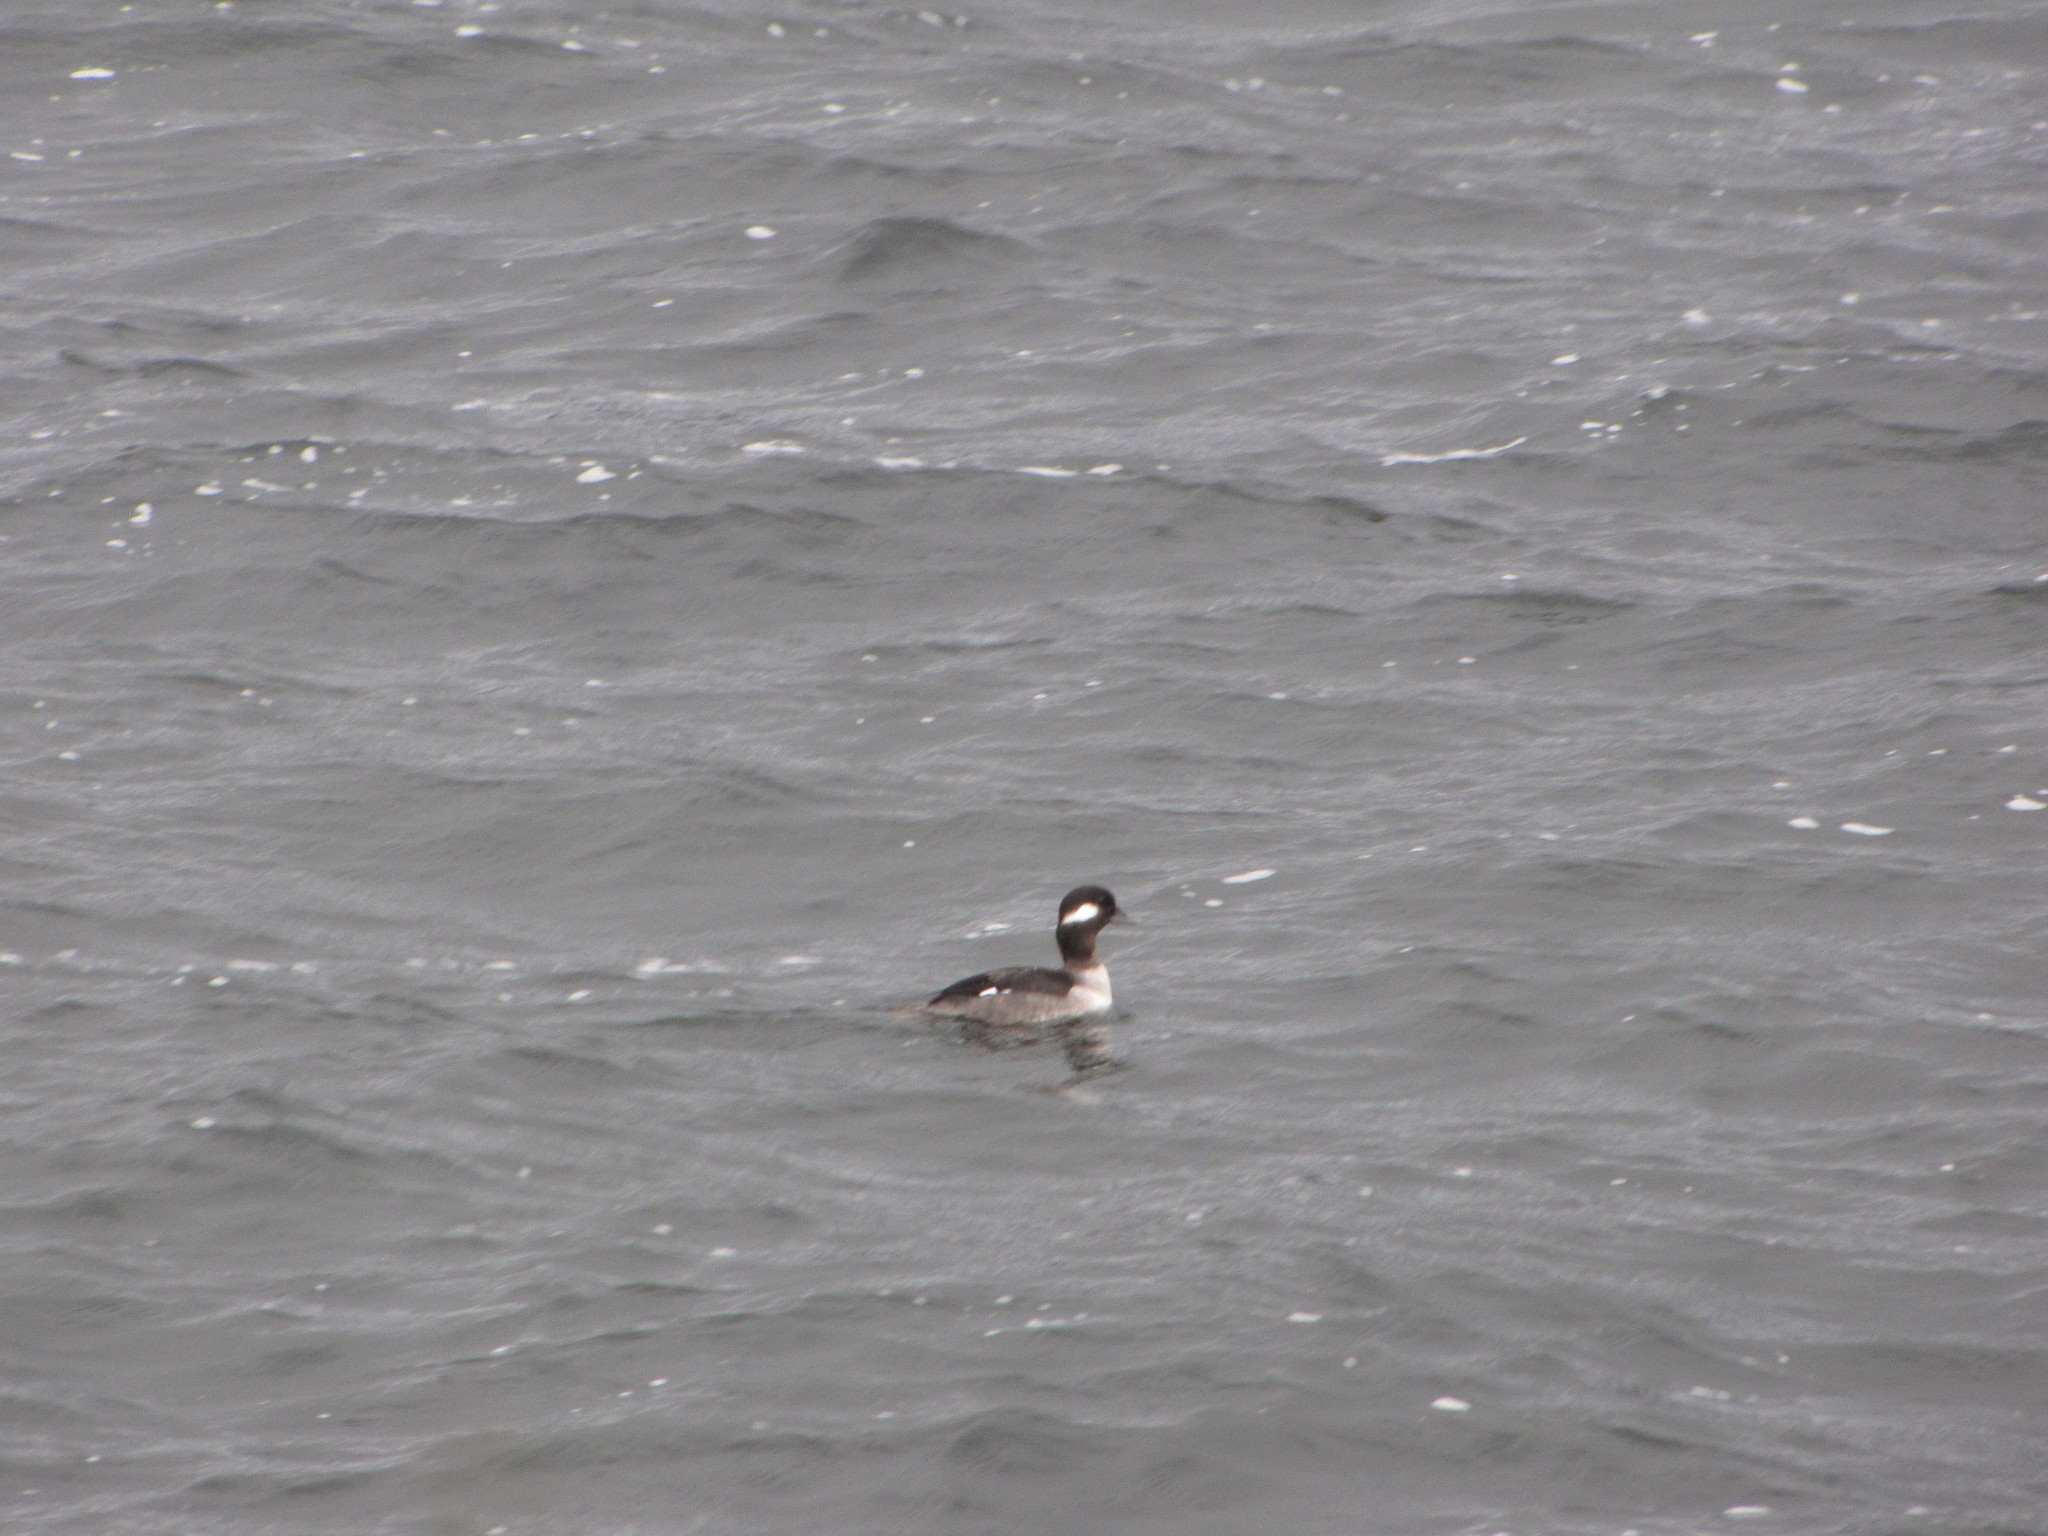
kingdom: Animalia
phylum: Chordata
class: Aves
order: Anseriformes
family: Anatidae
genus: Bucephala
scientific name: Bucephala albeola
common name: Bufflehead
